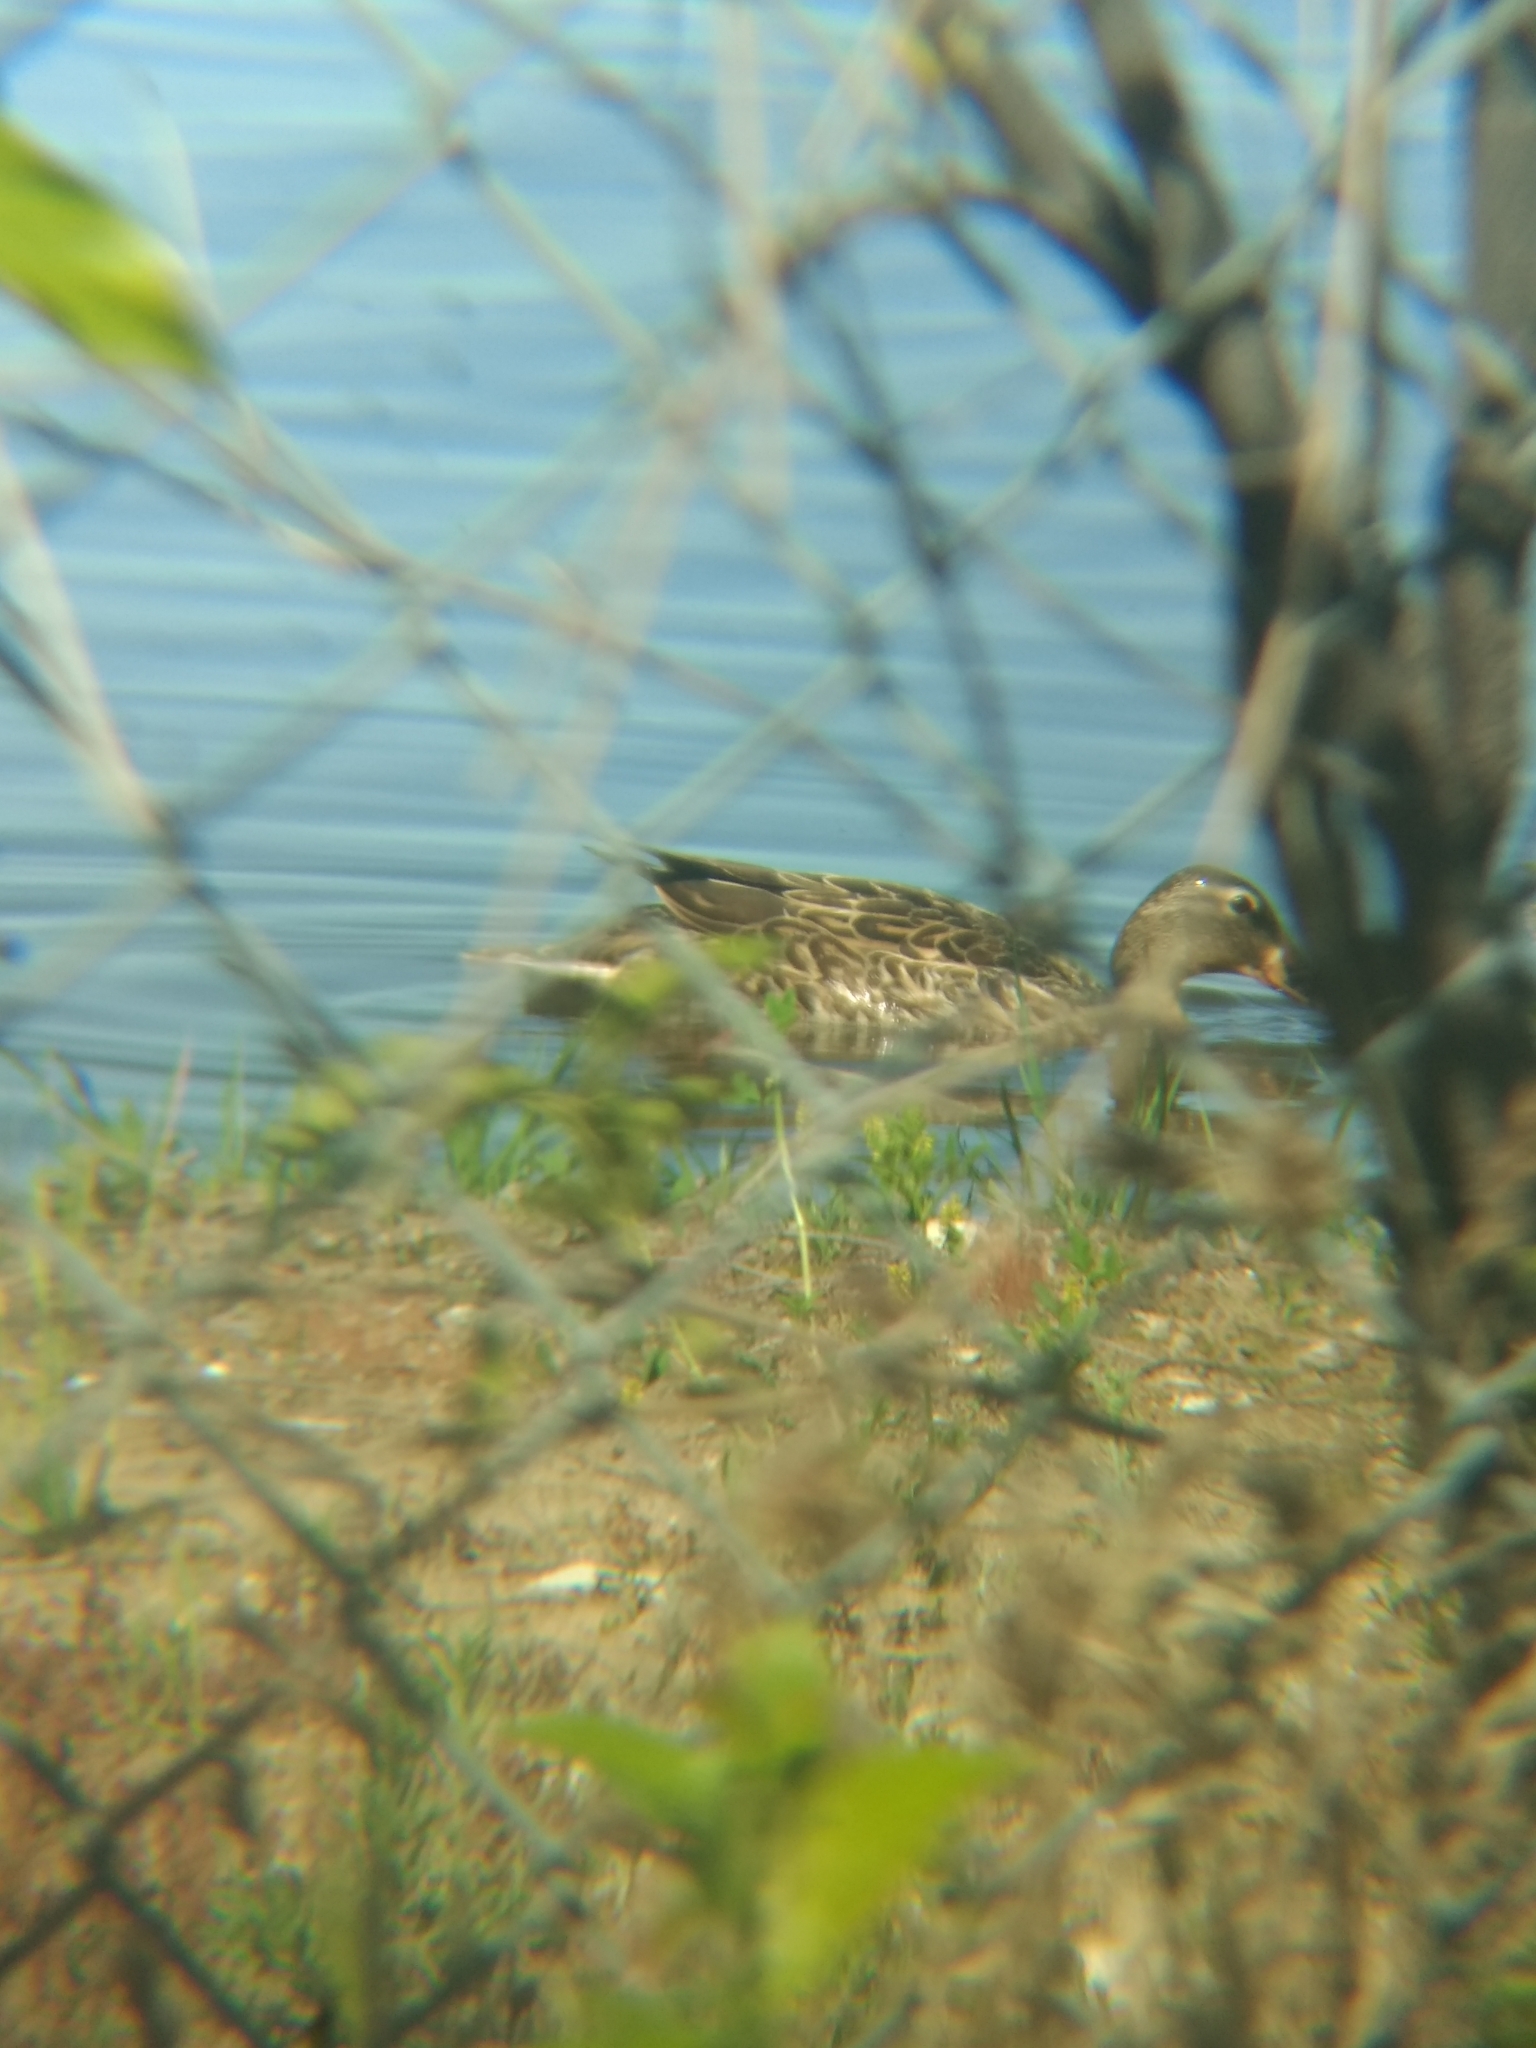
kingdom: Animalia
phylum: Chordata
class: Aves
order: Anseriformes
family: Anatidae
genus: Anas
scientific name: Anas platyrhynchos
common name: Mallard
